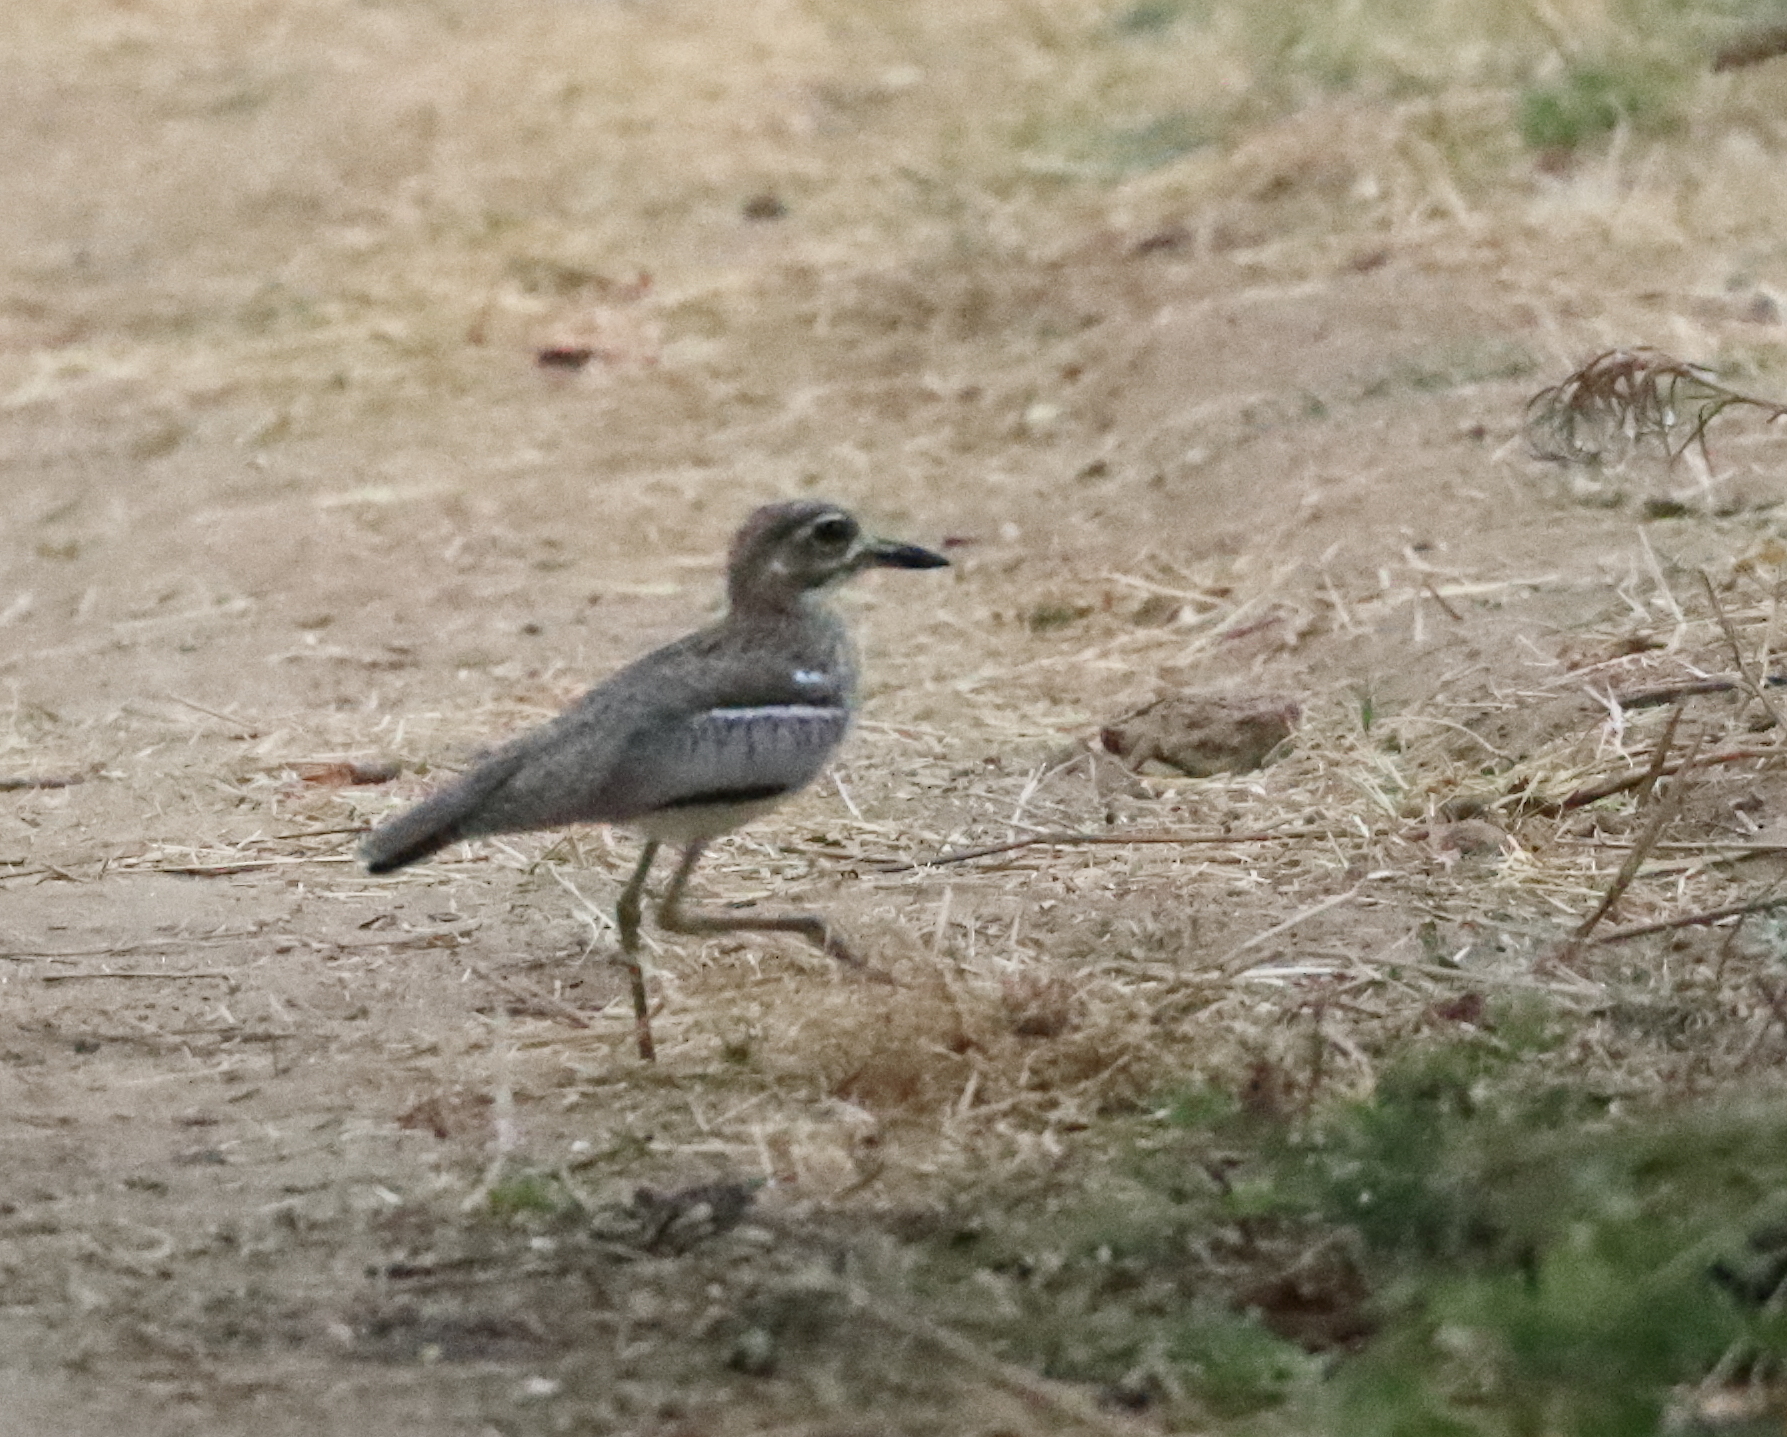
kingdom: Animalia
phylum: Chordata
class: Aves
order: Charadriiformes
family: Burhinidae
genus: Burhinus
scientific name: Burhinus vermiculatus
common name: Water thick-knee
